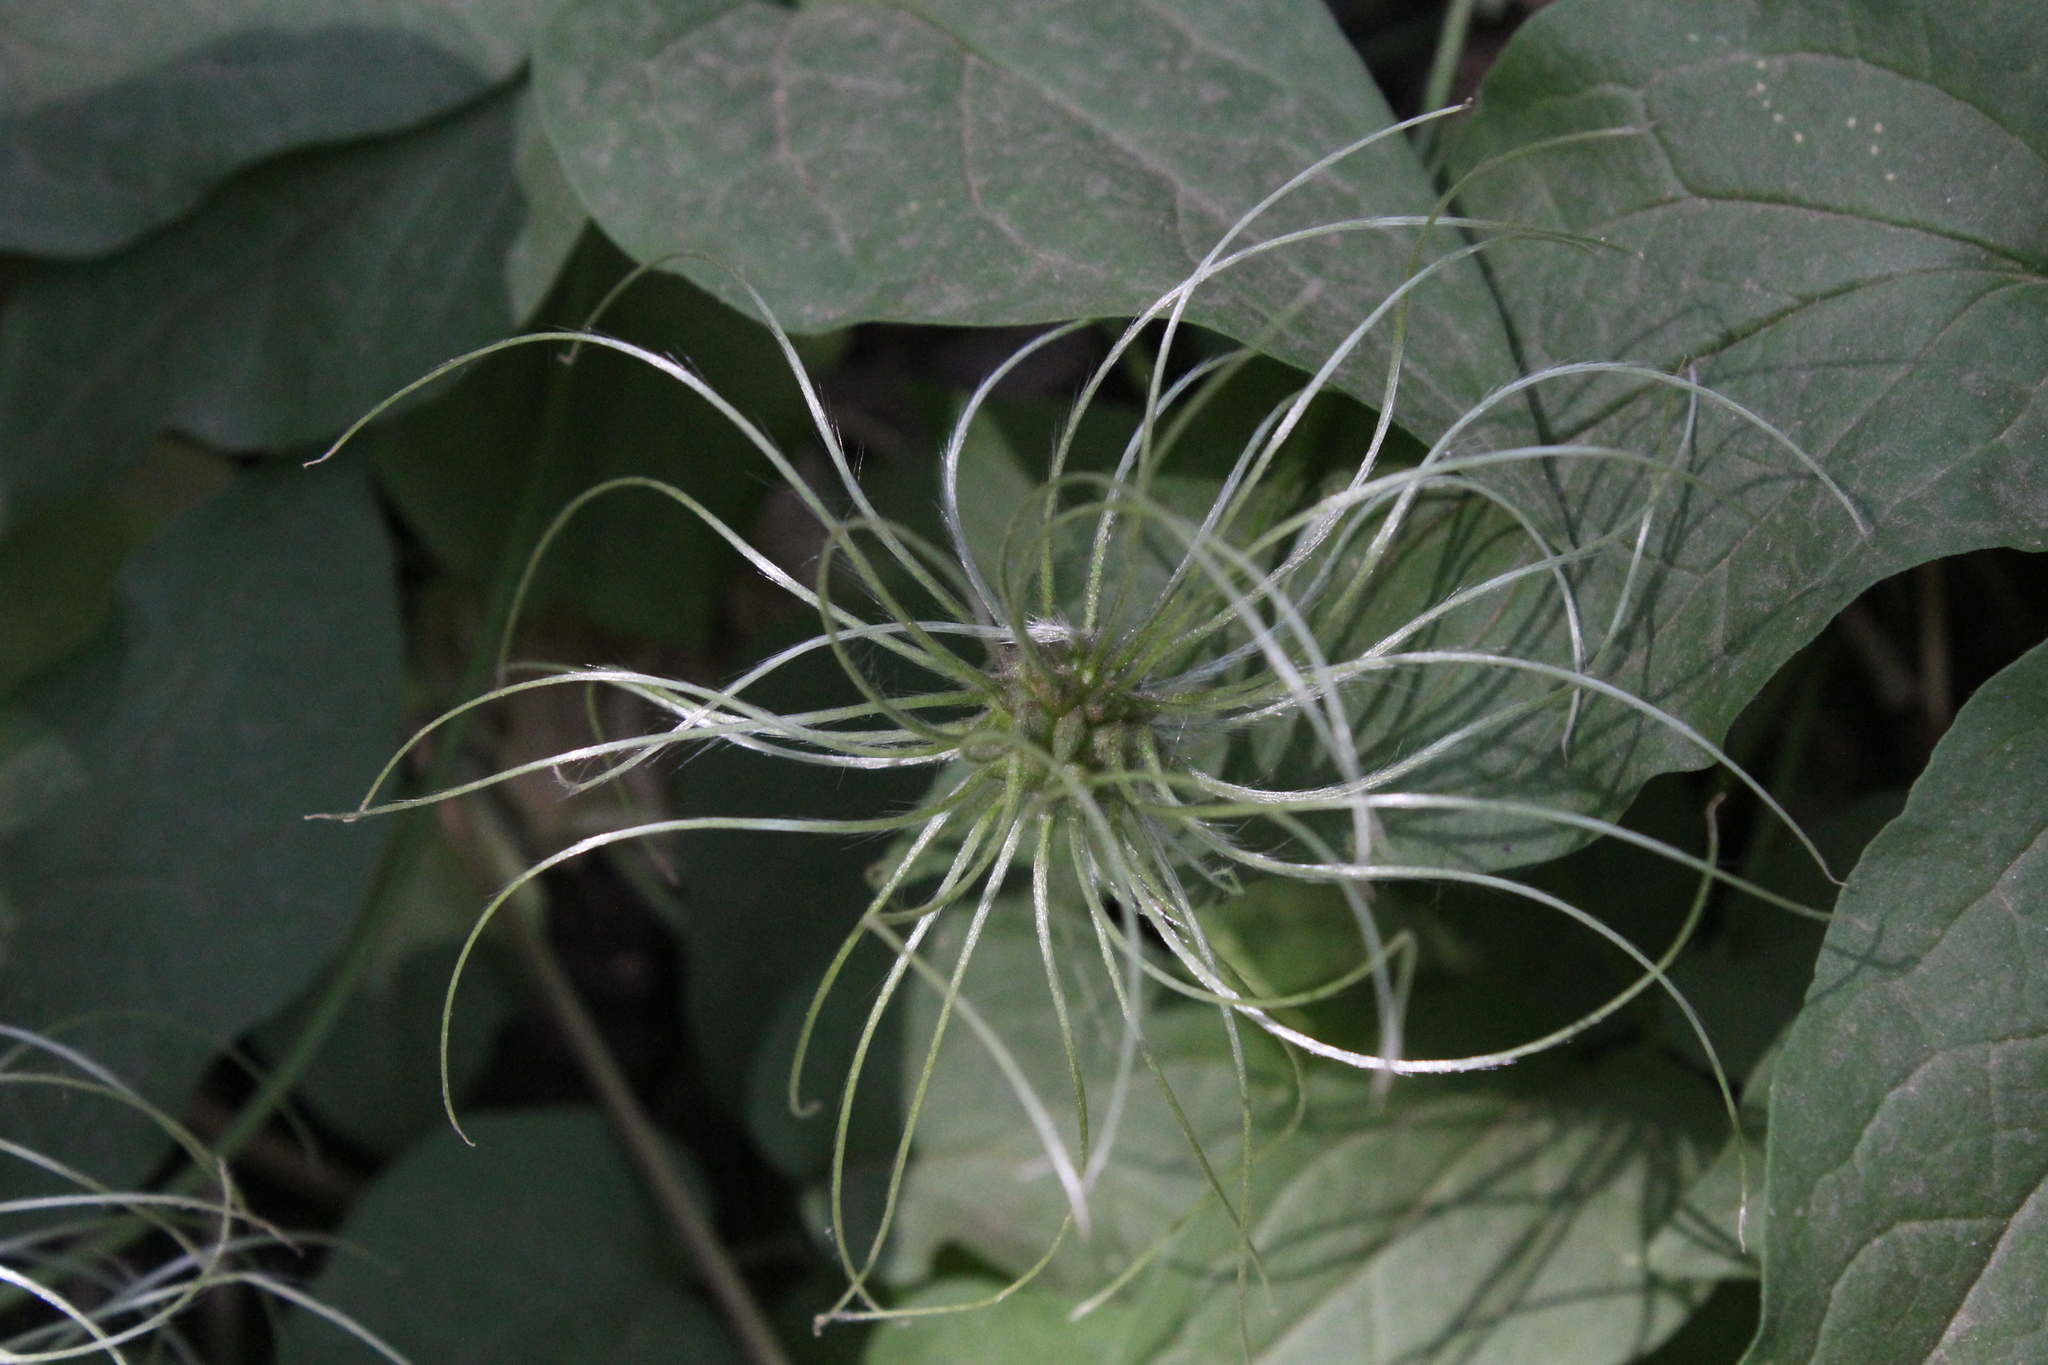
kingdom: Plantae
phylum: Tracheophyta
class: Magnoliopsida
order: Ranunculales
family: Ranunculaceae
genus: Clematis
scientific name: Clematis occidentalis
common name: Purple clematis
